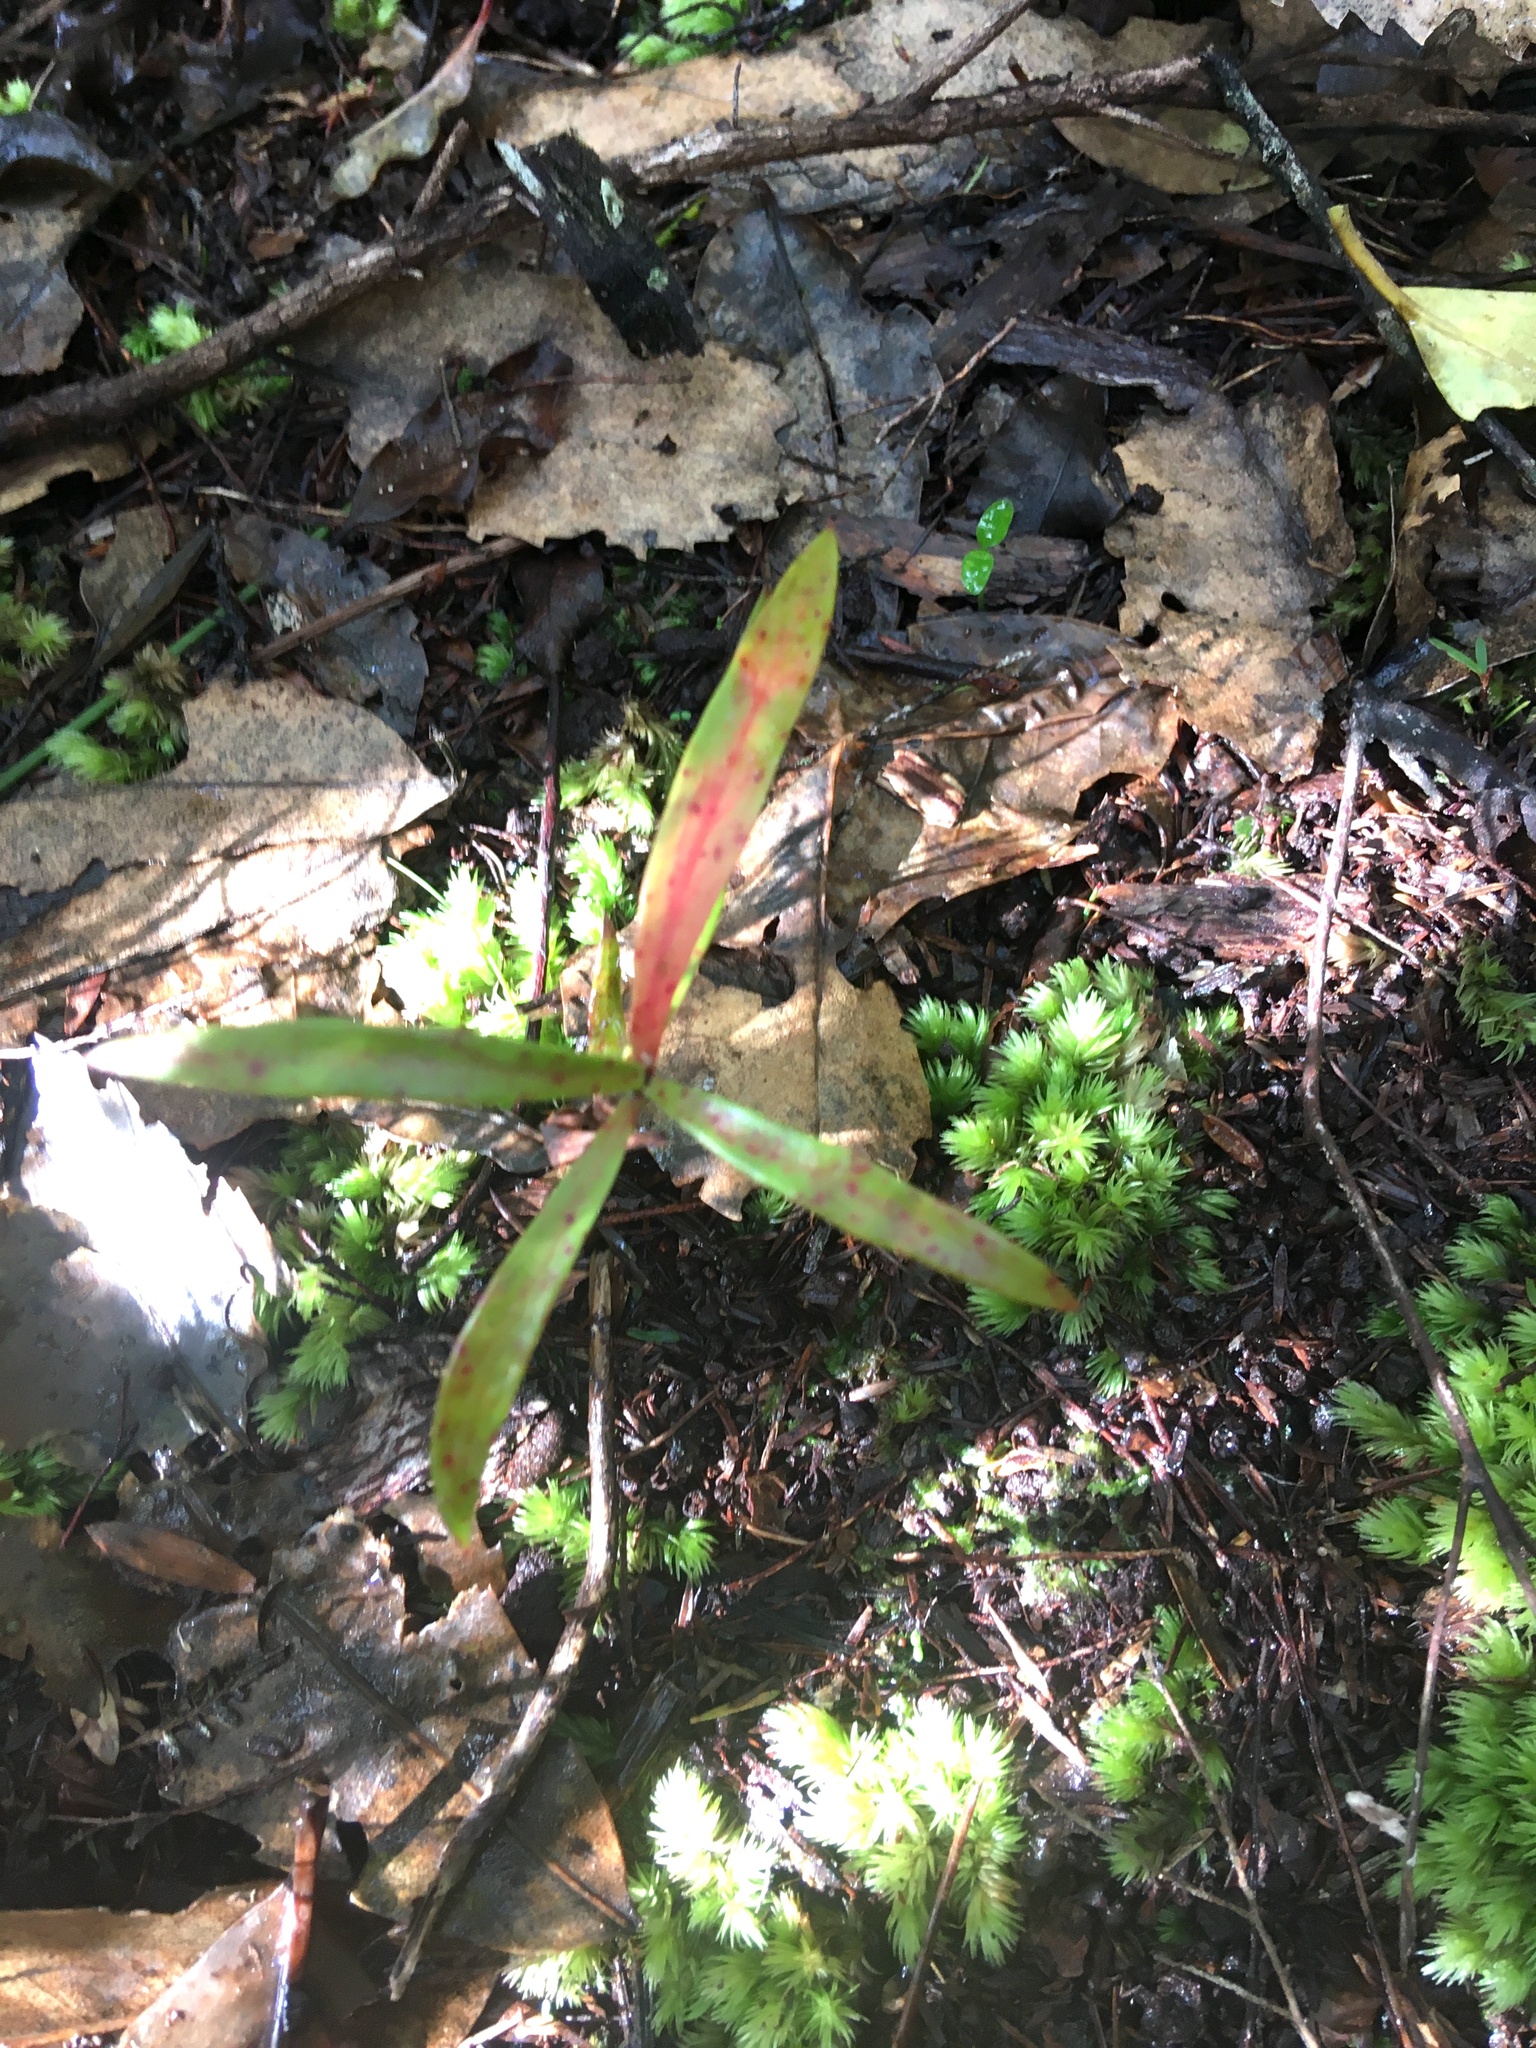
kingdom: Plantae
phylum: Tracheophyta
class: Magnoliopsida
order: Proteales
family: Proteaceae
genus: Toronia
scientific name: Toronia toru
